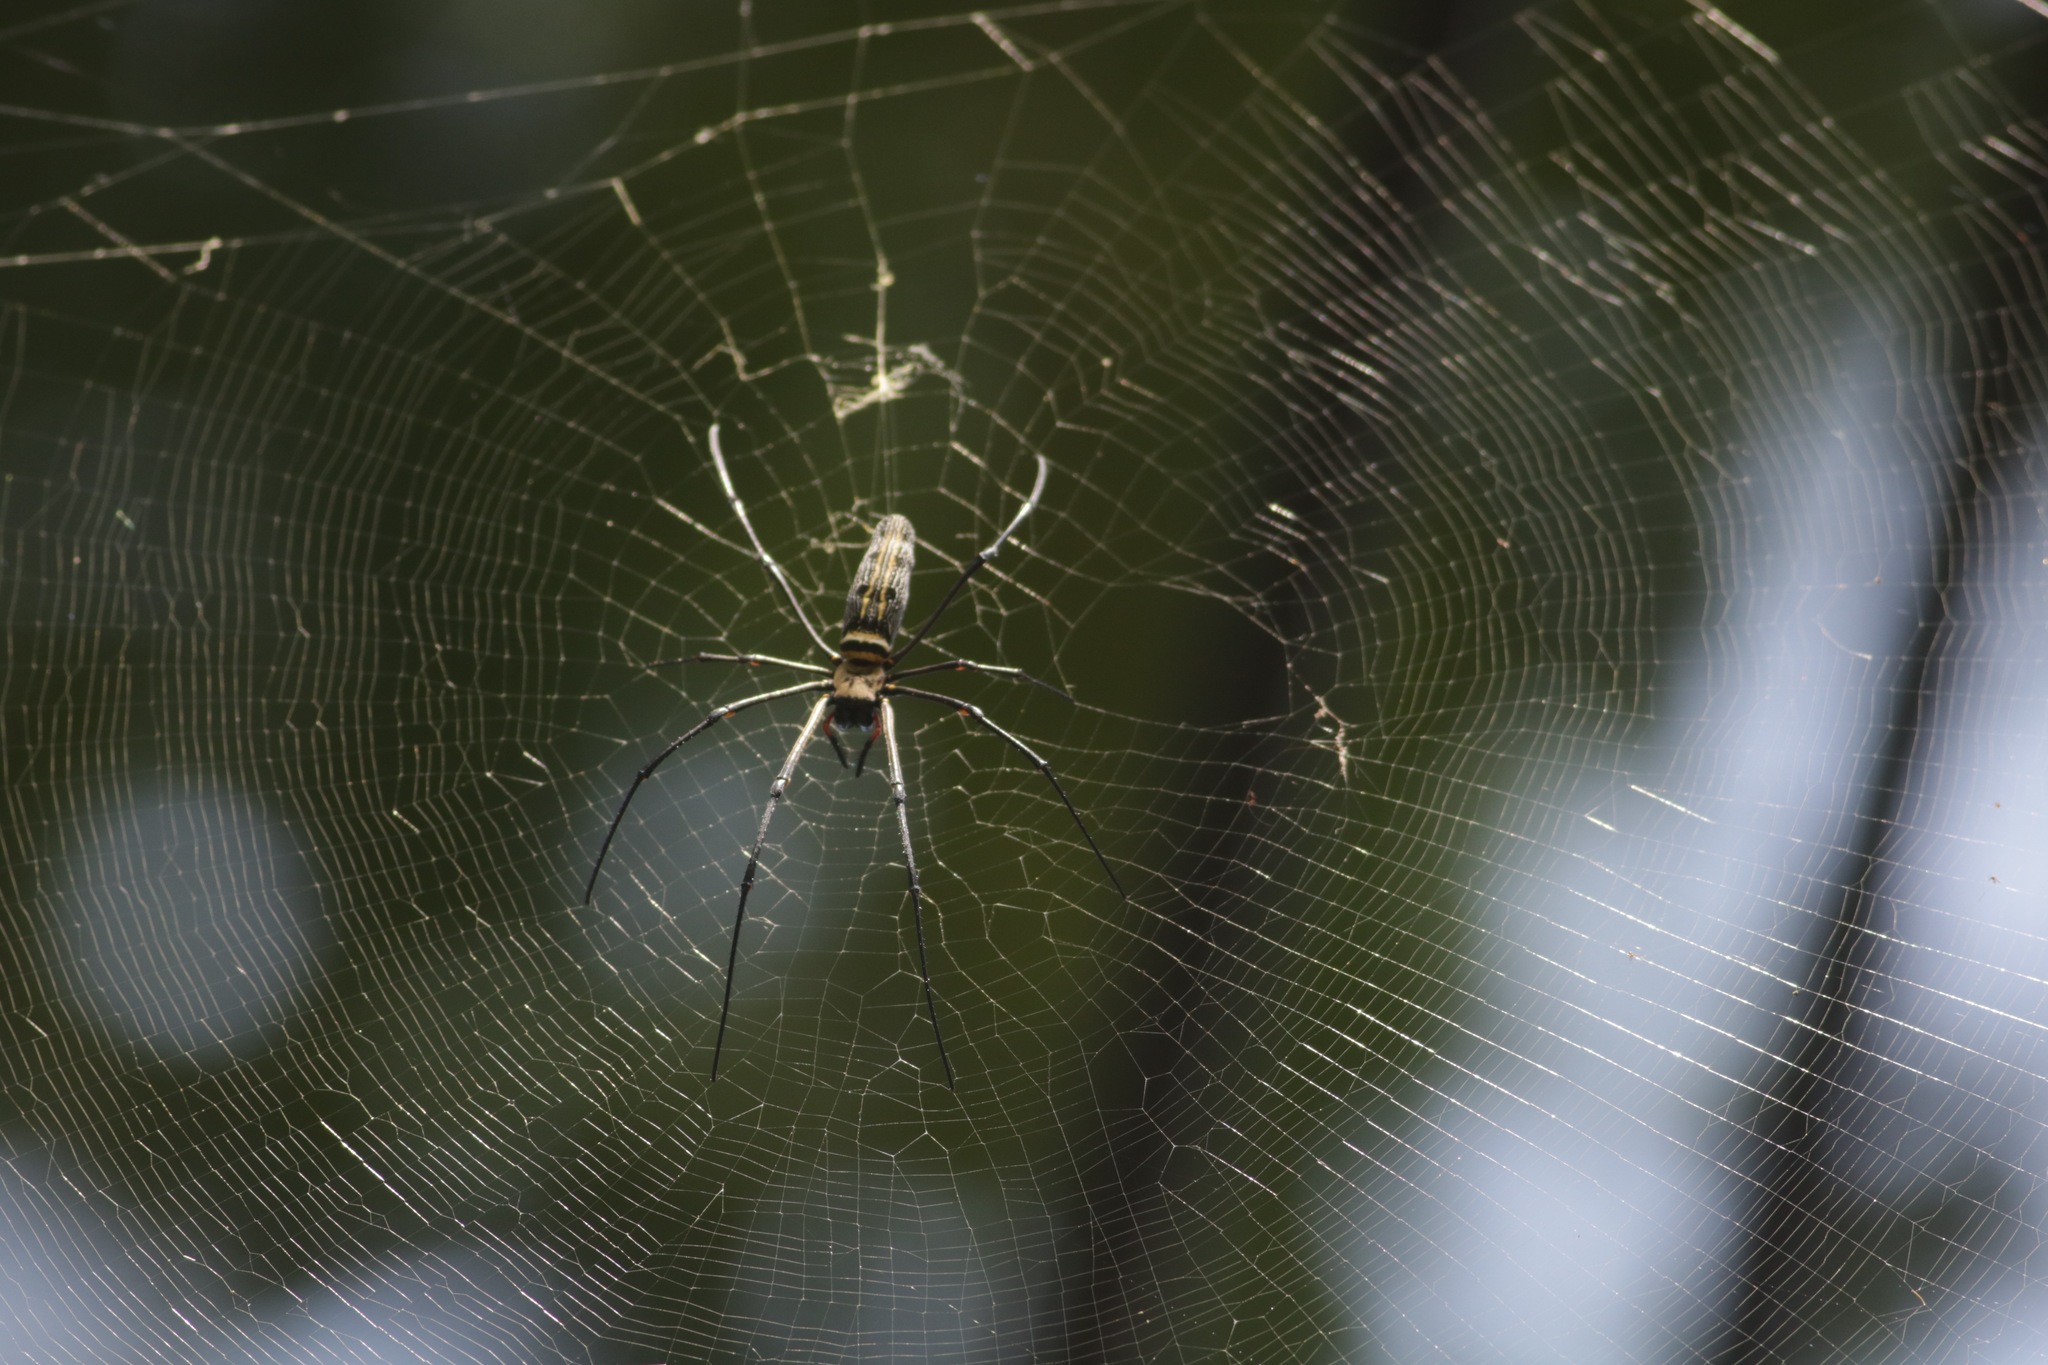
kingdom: Animalia
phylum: Arthropoda
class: Arachnida
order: Araneae
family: Araneidae
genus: Nephila
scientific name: Nephila pilipes
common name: Giant golden orb weaver
